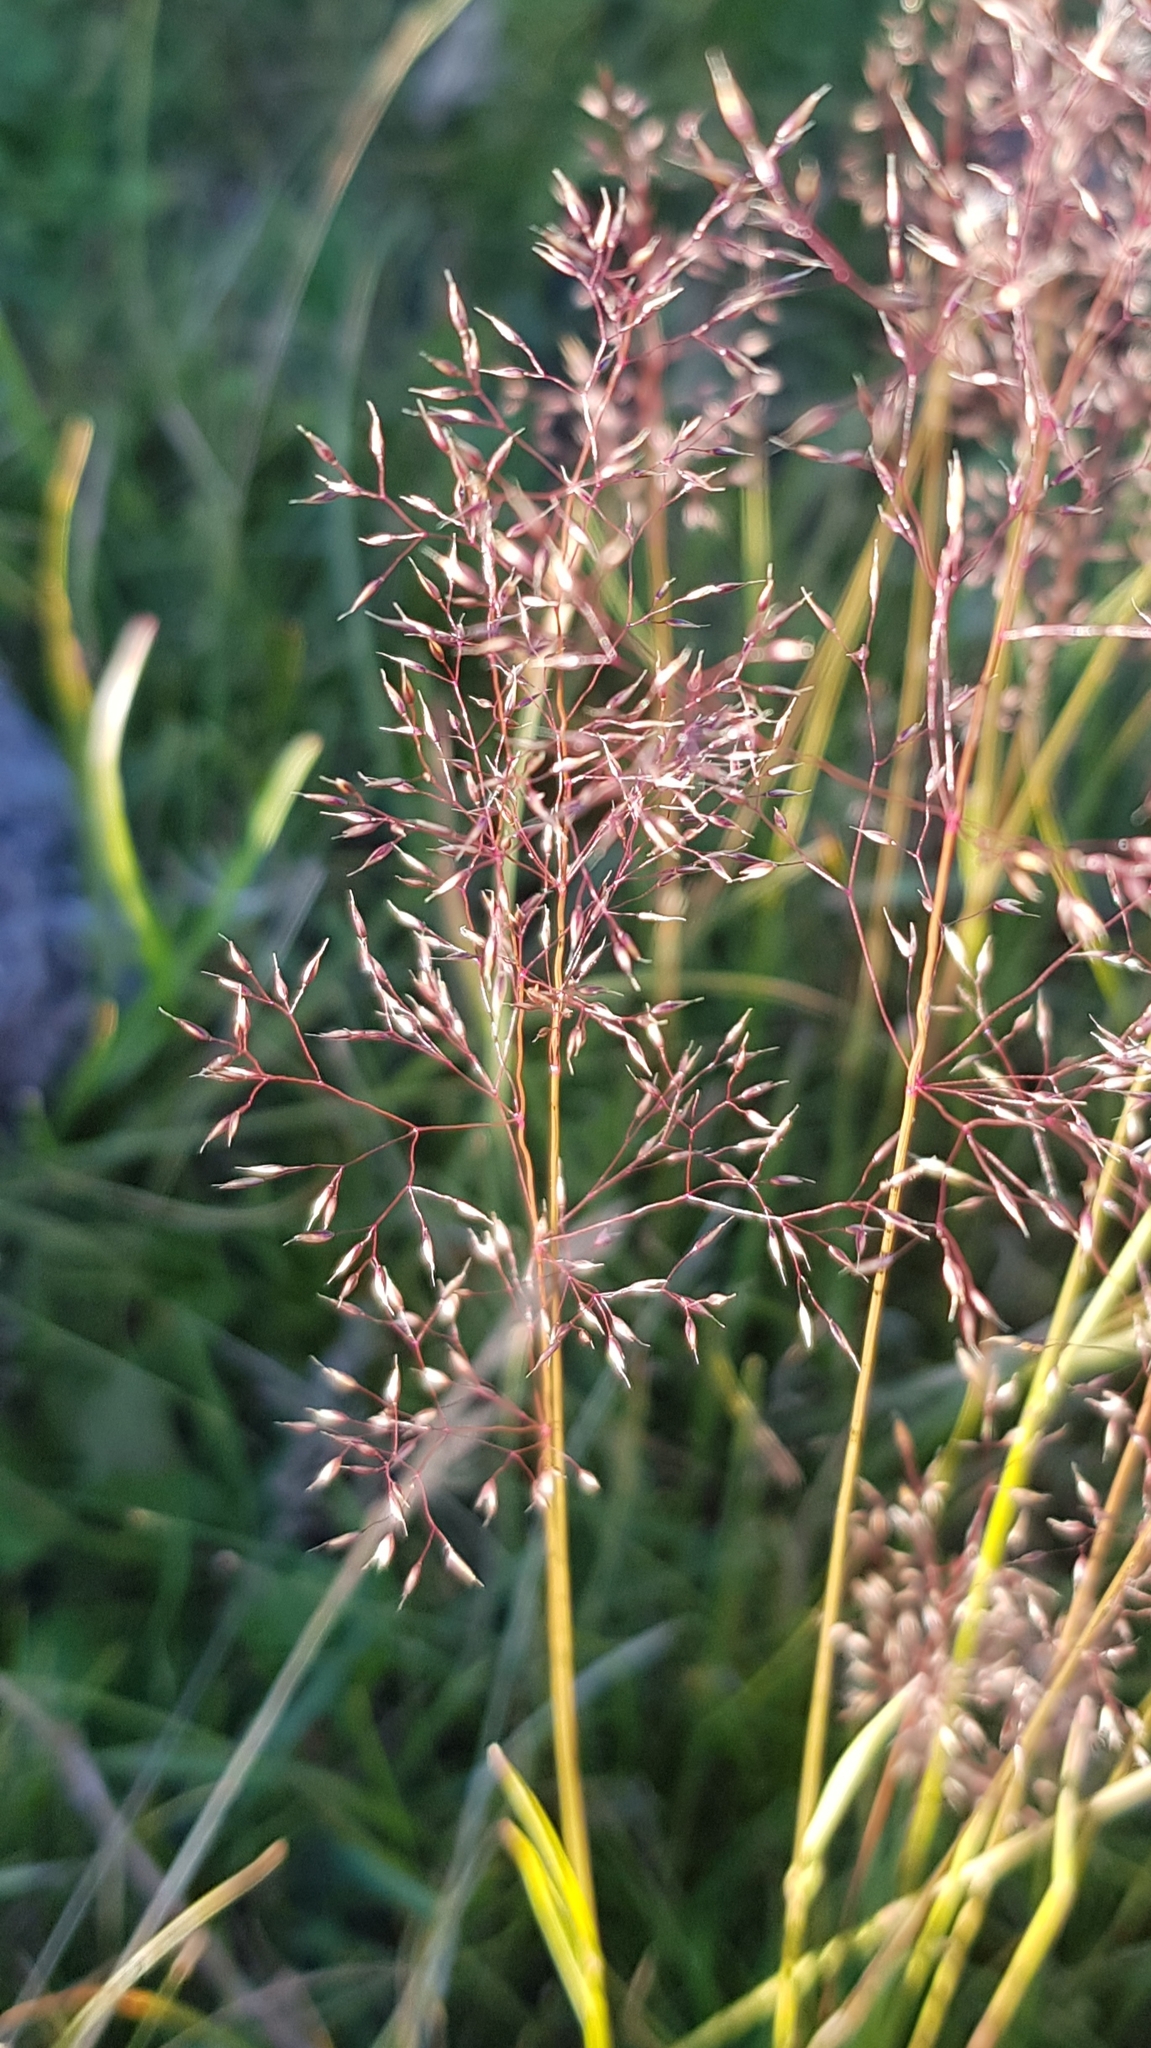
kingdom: Plantae
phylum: Tracheophyta
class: Liliopsida
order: Poales
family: Poaceae
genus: Agrostis
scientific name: Agrostis vinealis
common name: Brown bent
